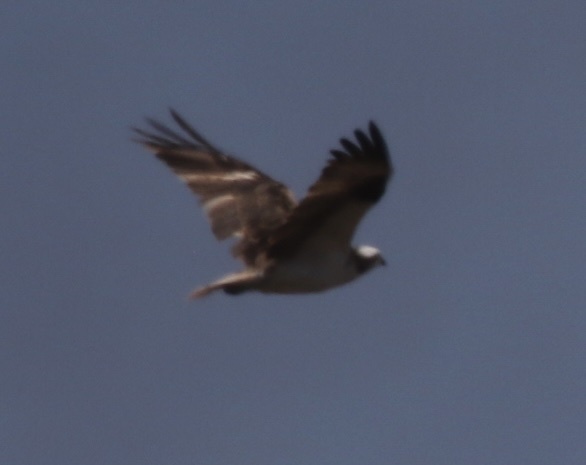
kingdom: Animalia
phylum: Chordata
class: Aves
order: Accipitriformes
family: Pandionidae
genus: Pandion
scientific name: Pandion haliaetus
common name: Osprey
